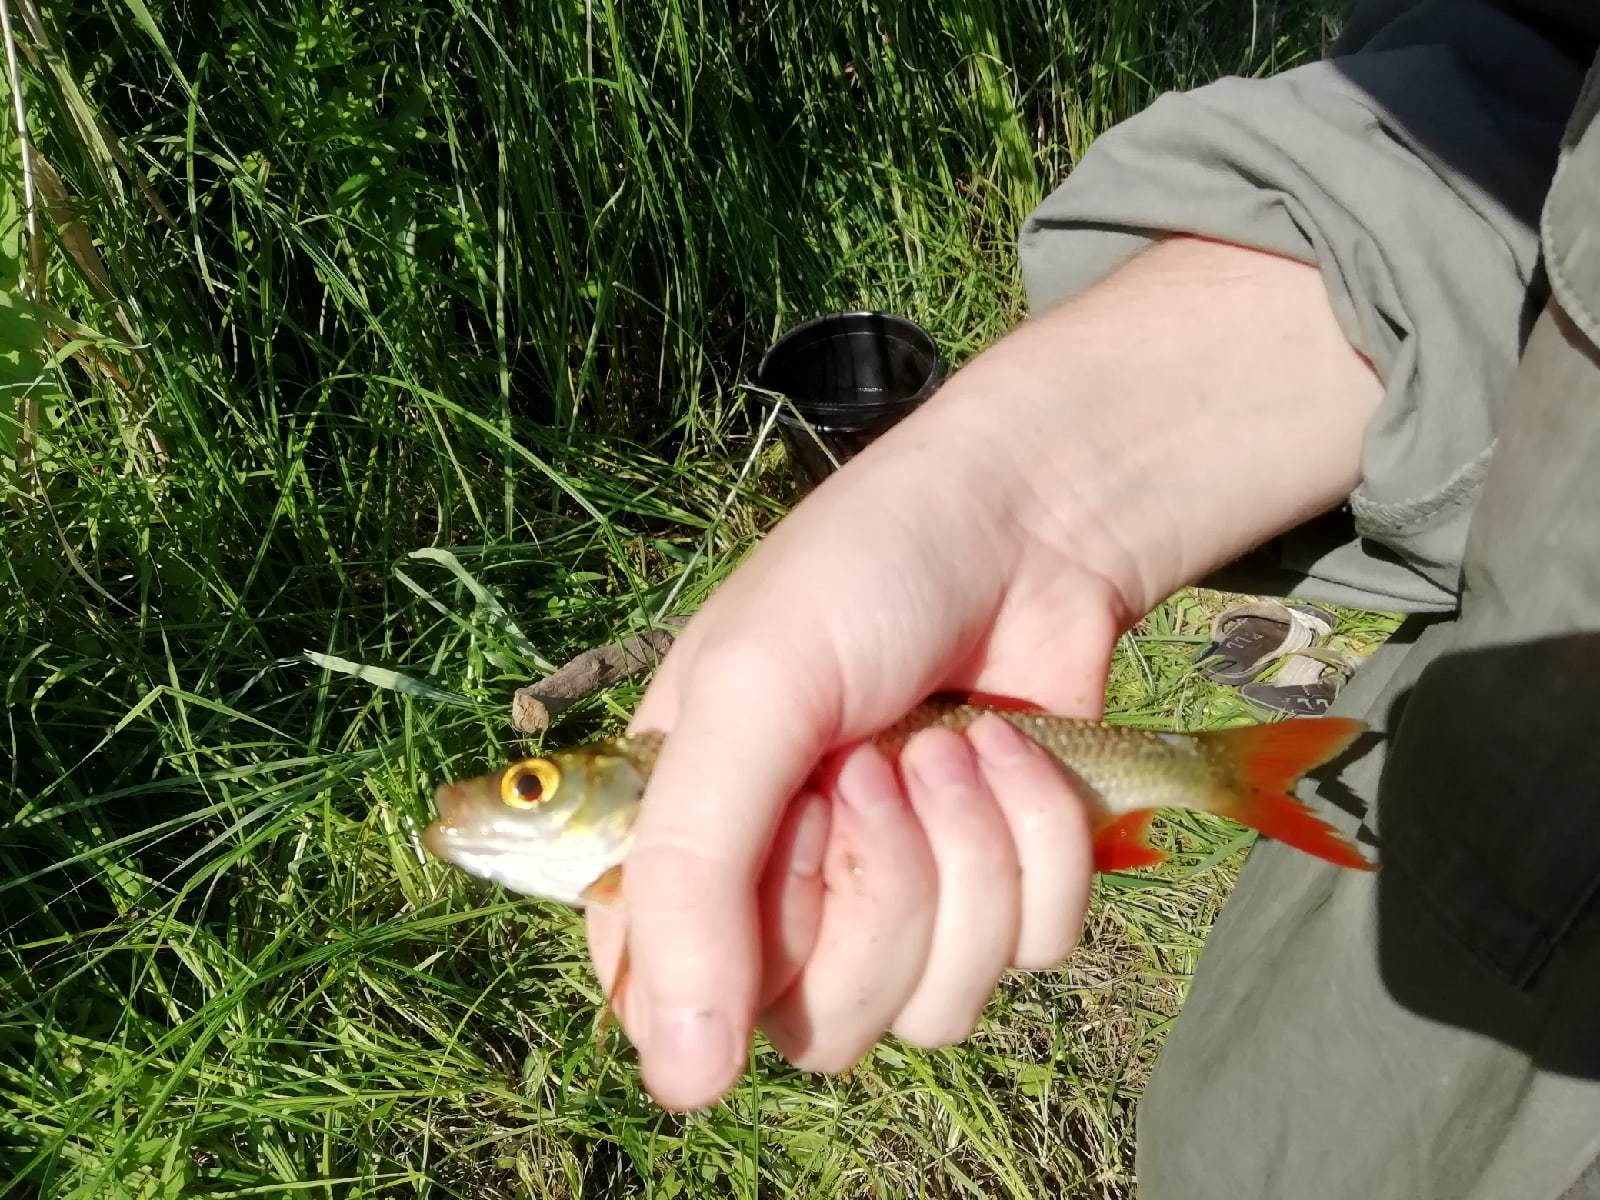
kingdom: Animalia
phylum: Chordata
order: Cypriniformes
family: Cyprinidae
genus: Scardinius
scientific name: Scardinius erythrophthalmus
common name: Rudd
